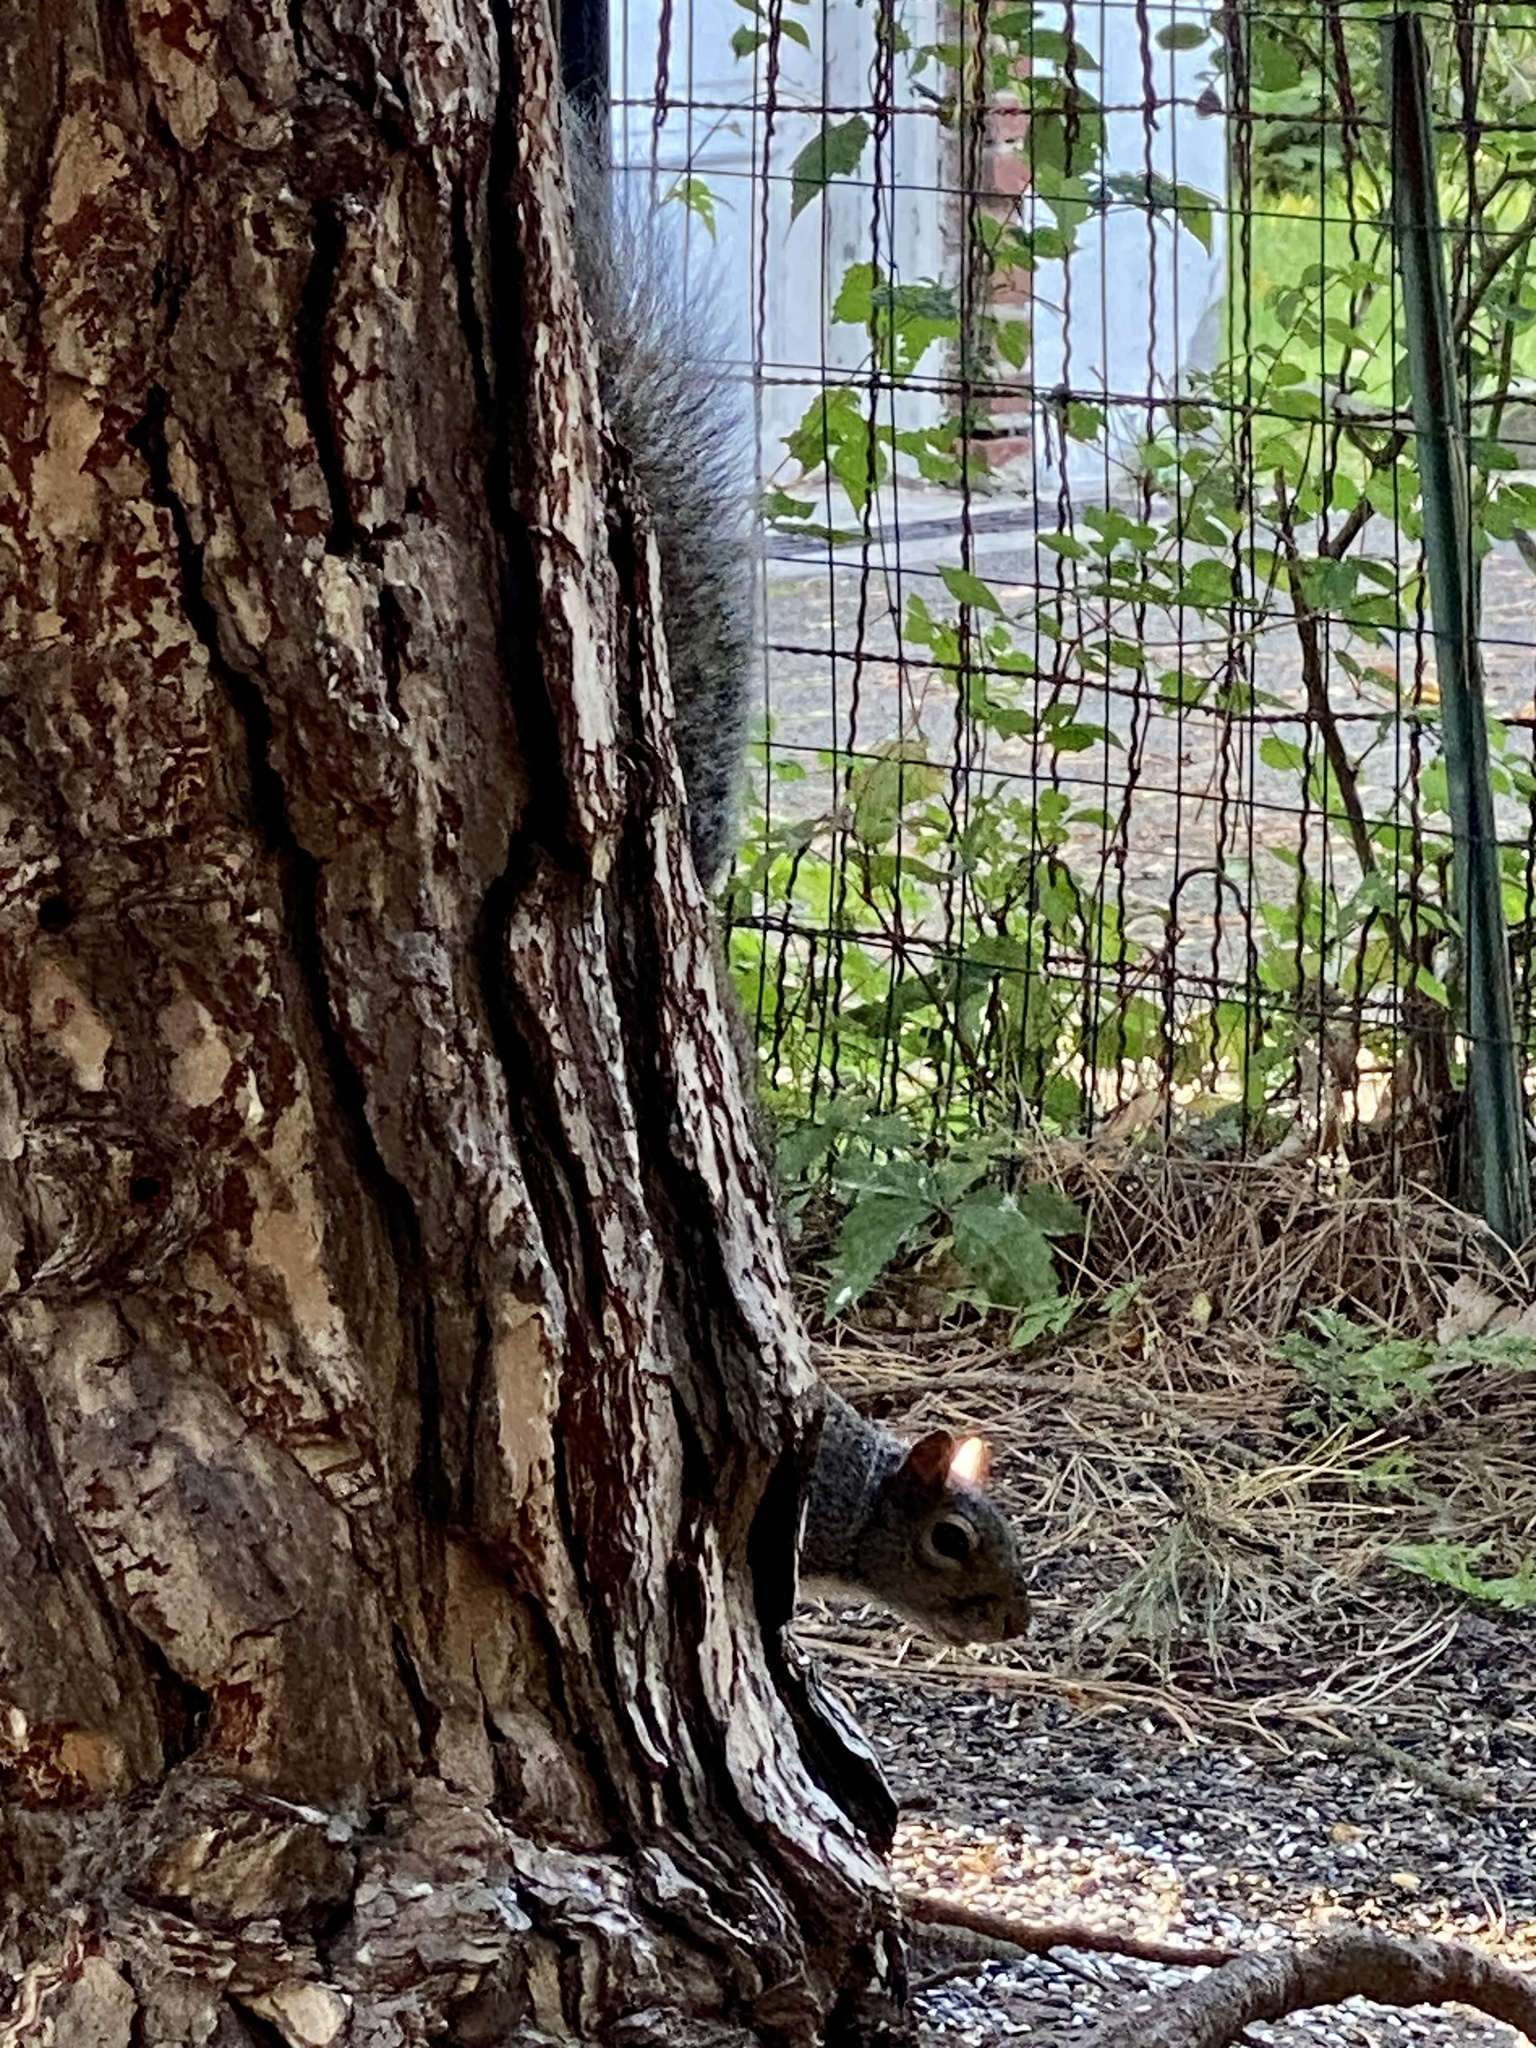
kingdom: Animalia
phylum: Chordata
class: Mammalia
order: Rodentia
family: Sciuridae
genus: Sciurus
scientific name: Sciurus carolinensis
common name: Eastern gray squirrel
